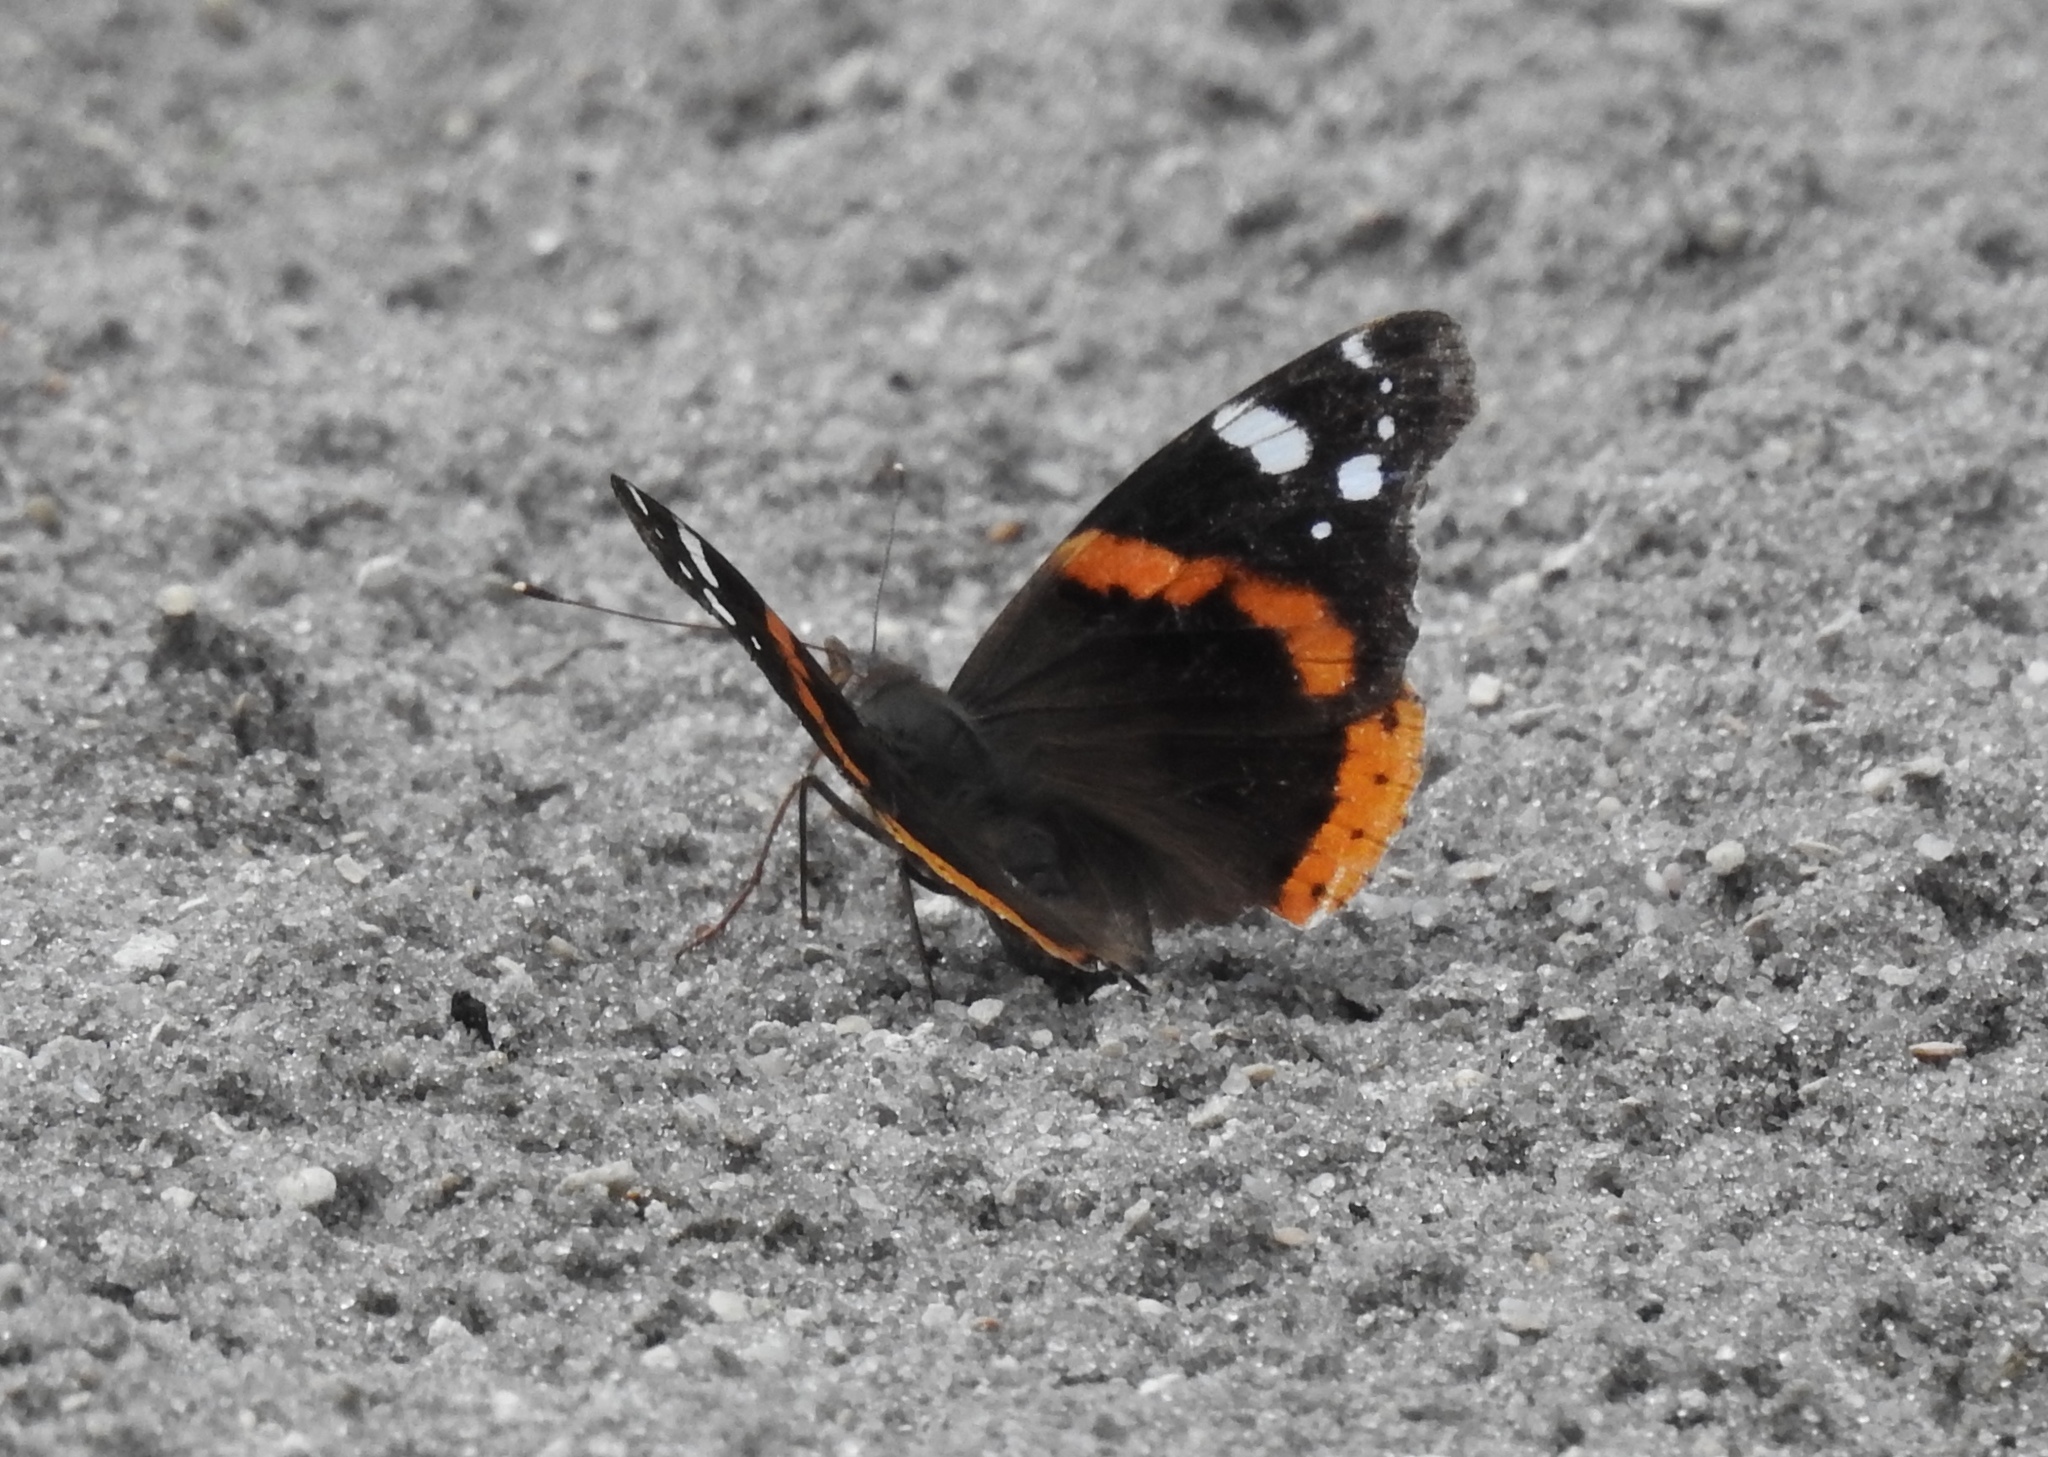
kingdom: Animalia
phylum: Arthropoda
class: Insecta
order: Lepidoptera
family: Nymphalidae
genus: Vanessa
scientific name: Vanessa atalanta
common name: Red admiral
